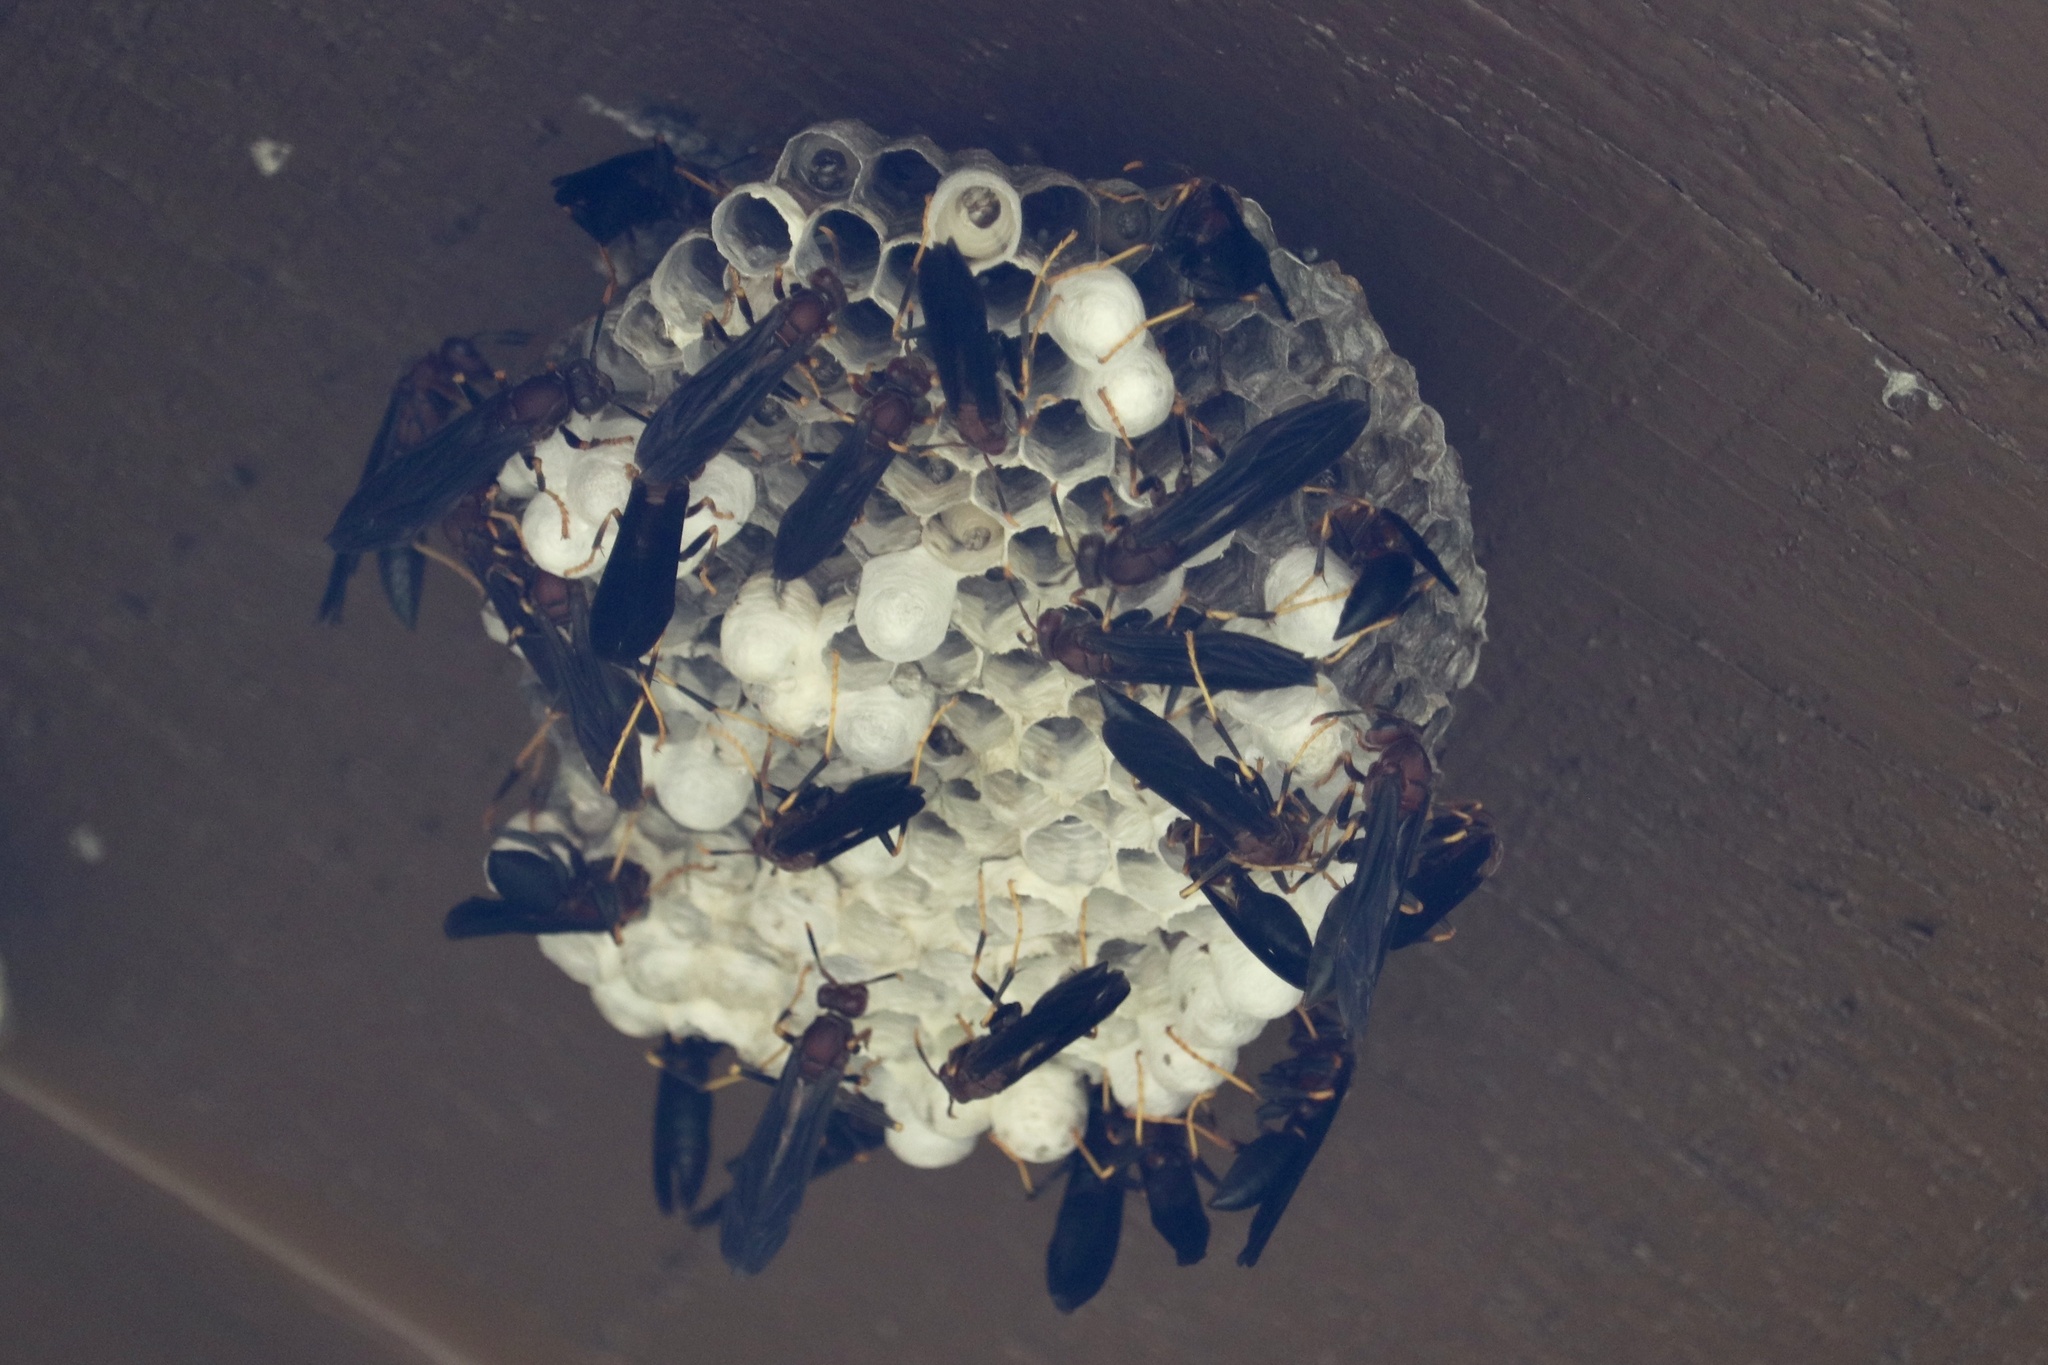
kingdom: Animalia
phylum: Arthropoda
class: Insecta
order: Hymenoptera
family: Eumenidae
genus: Polistes
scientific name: Polistes annularis
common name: Ringed paper wasp
